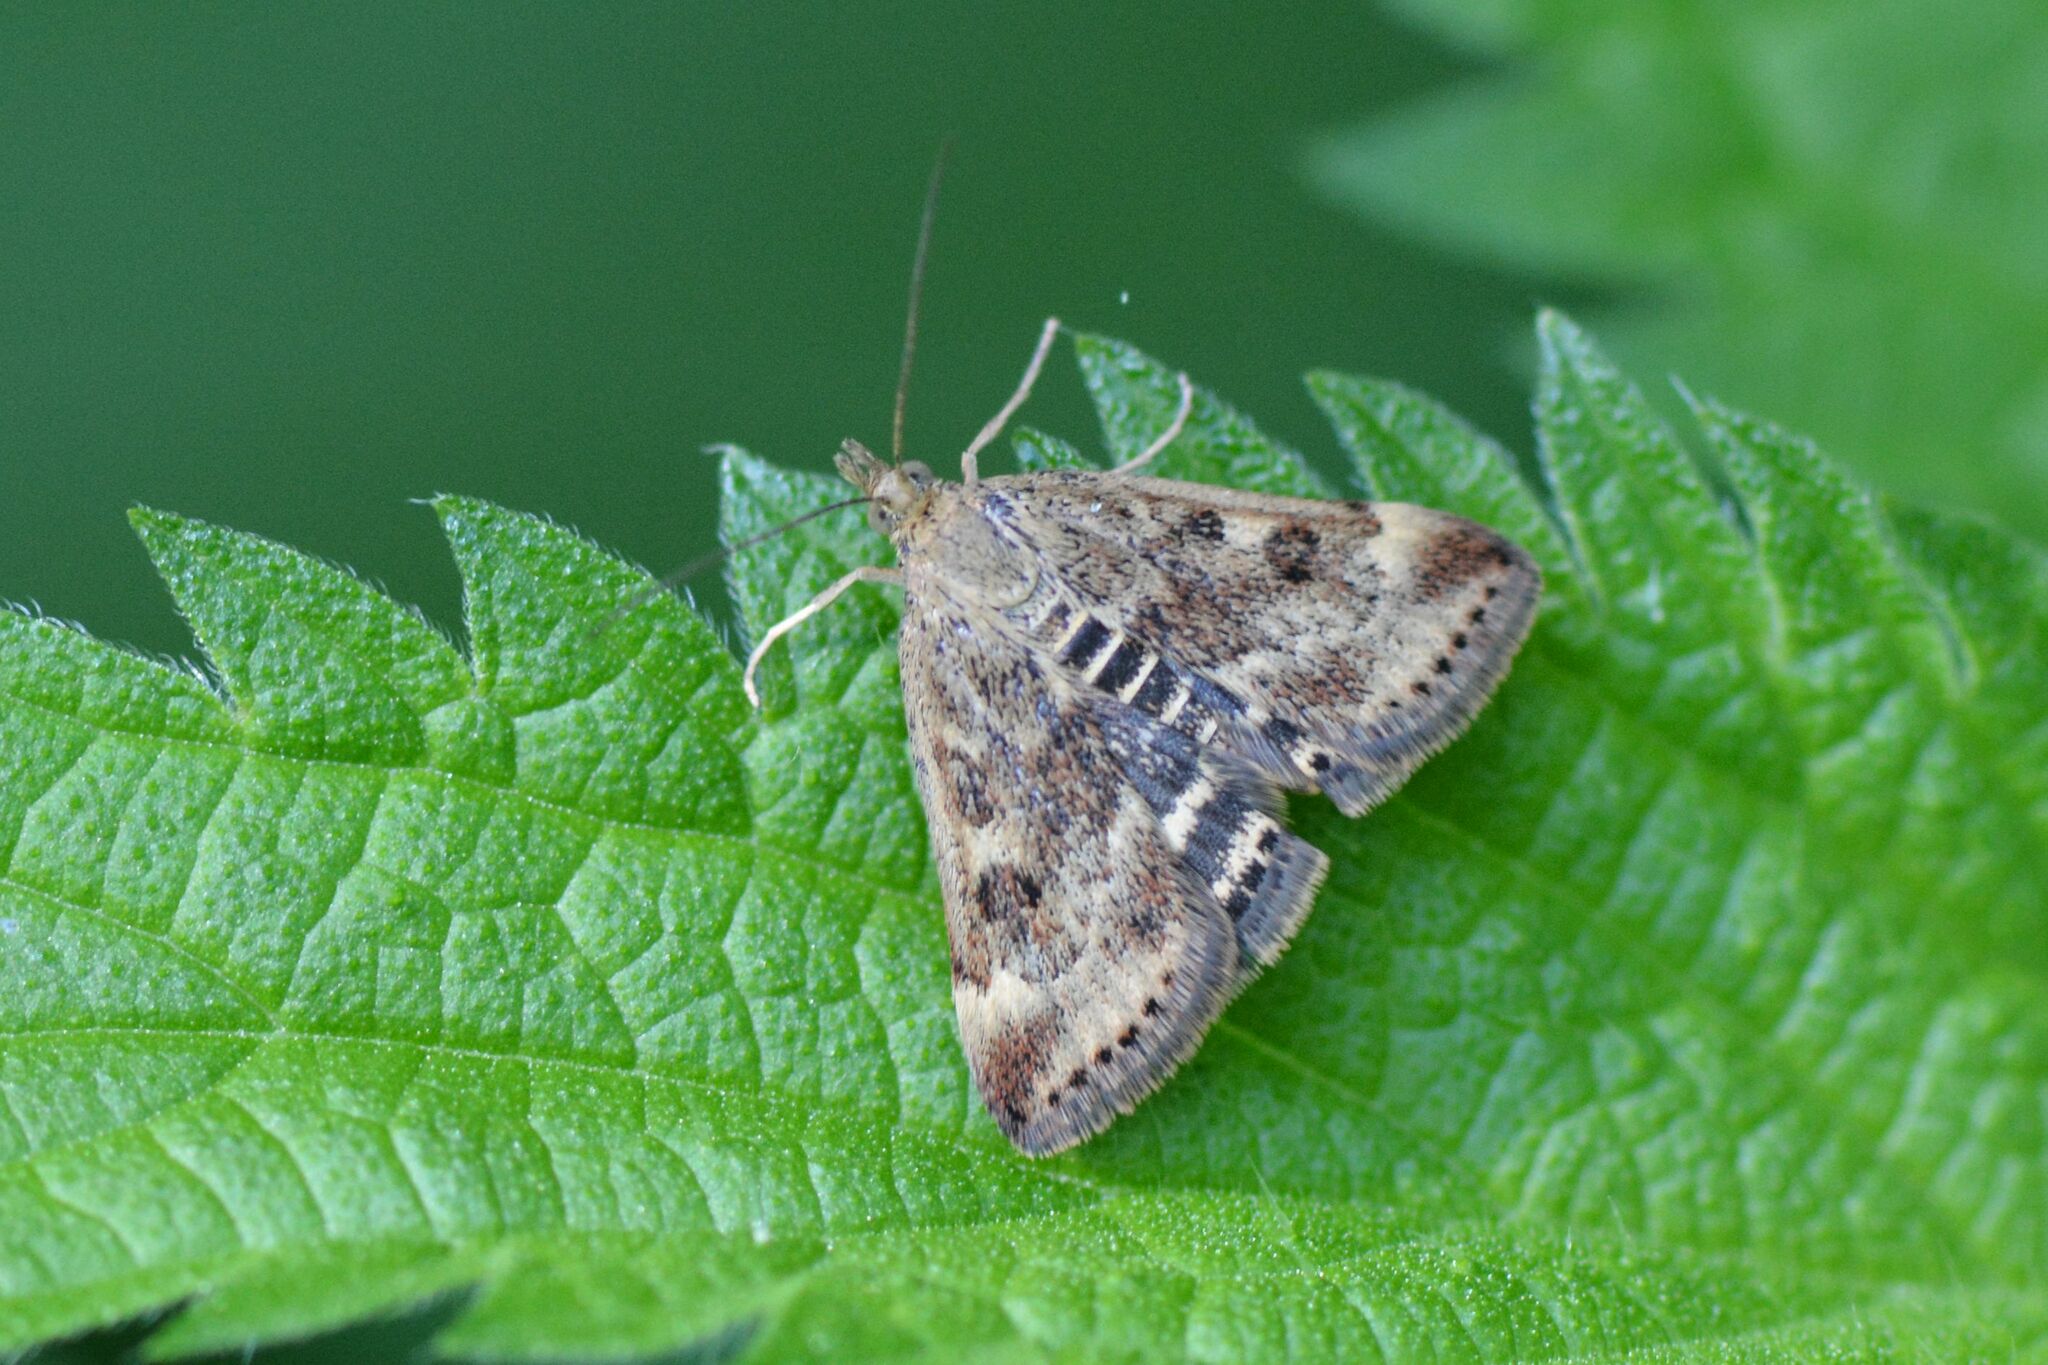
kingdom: Animalia
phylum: Arthropoda
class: Insecta
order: Lepidoptera
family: Crambidae
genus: Pyrausta
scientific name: Pyrausta despicata
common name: Straw-barred pearl
